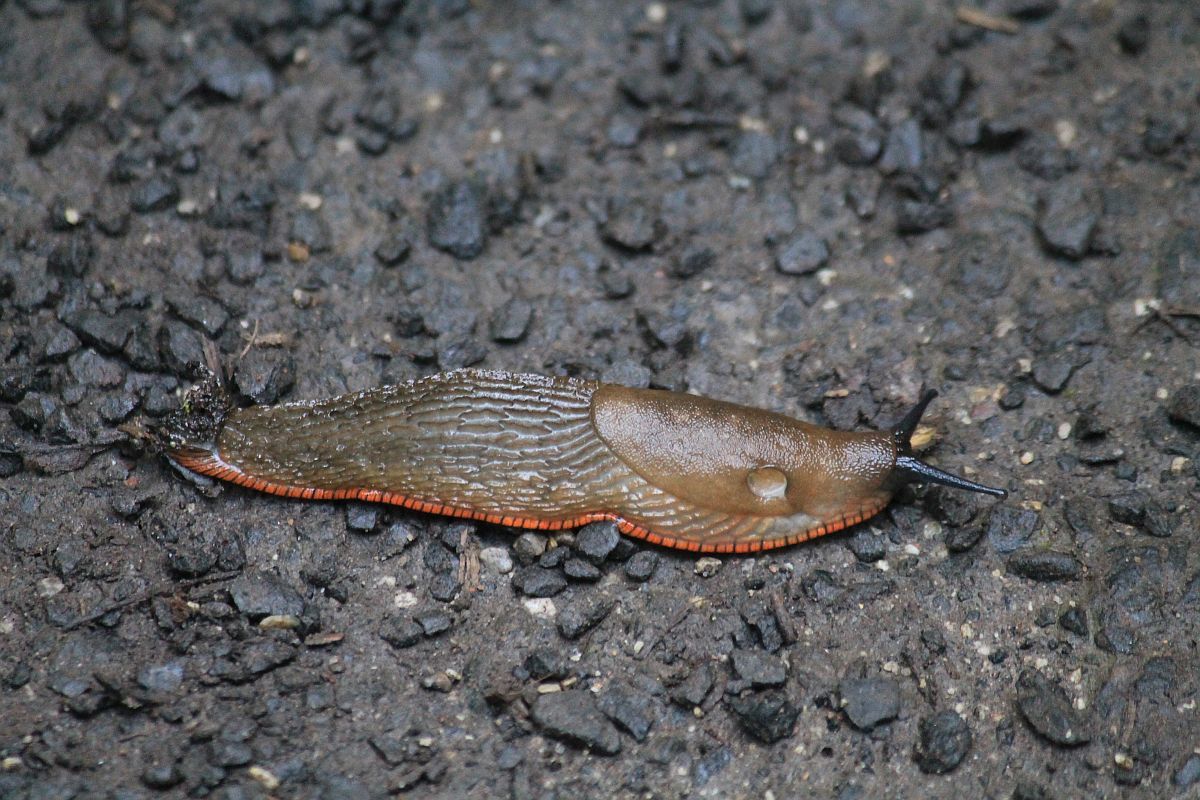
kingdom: Animalia
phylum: Mollusca
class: Gastropoda
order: Stylommatophora
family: Arionidae
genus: Arion
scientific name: Arion
